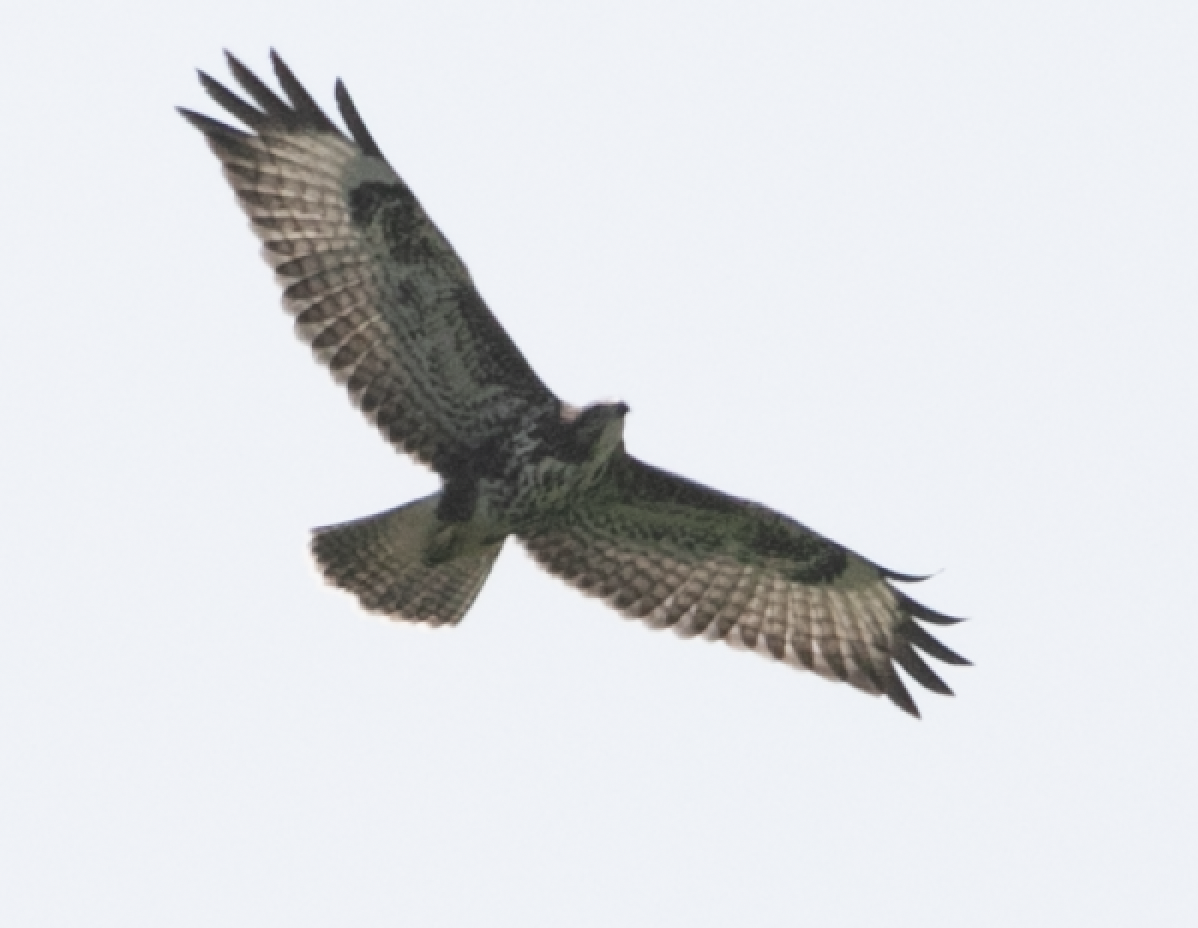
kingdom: Animalia
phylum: Chordata
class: Aves
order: Accipitriformes
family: Accipitridae
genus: Buteo
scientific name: Buteo buteo
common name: Common buzzard
